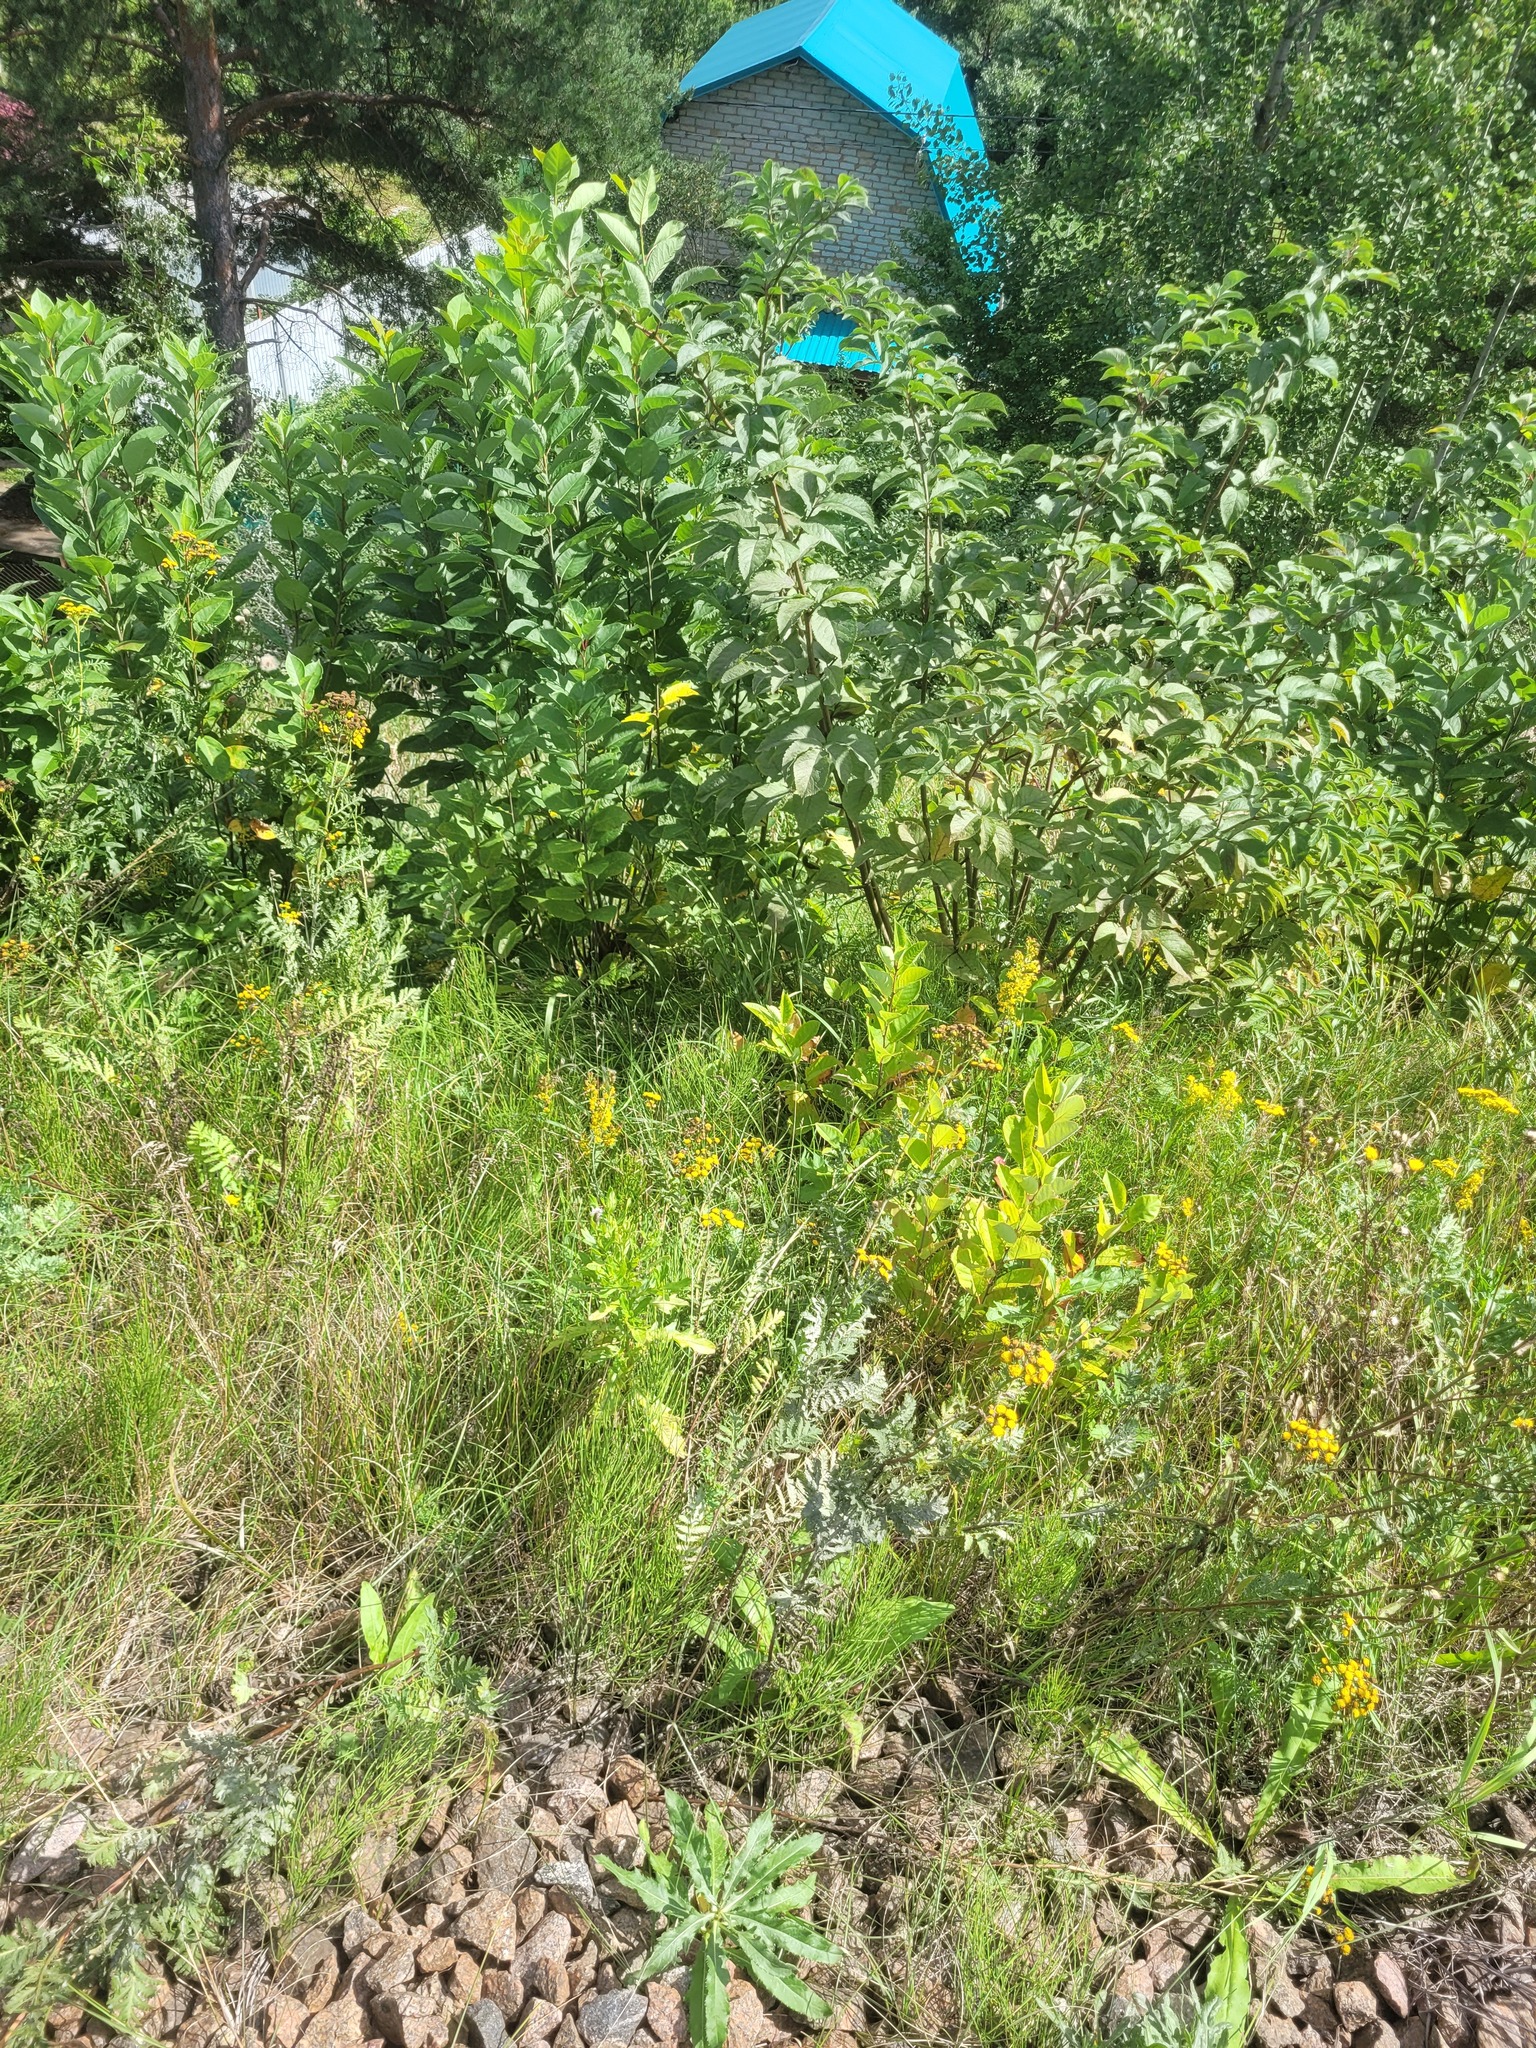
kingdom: Plantae
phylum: Tracheophyta
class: Magnoliopsida
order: Dipsacales
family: Viburnaceae
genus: Sambucus
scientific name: Sambucus racemosa
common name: Red-berried elder
